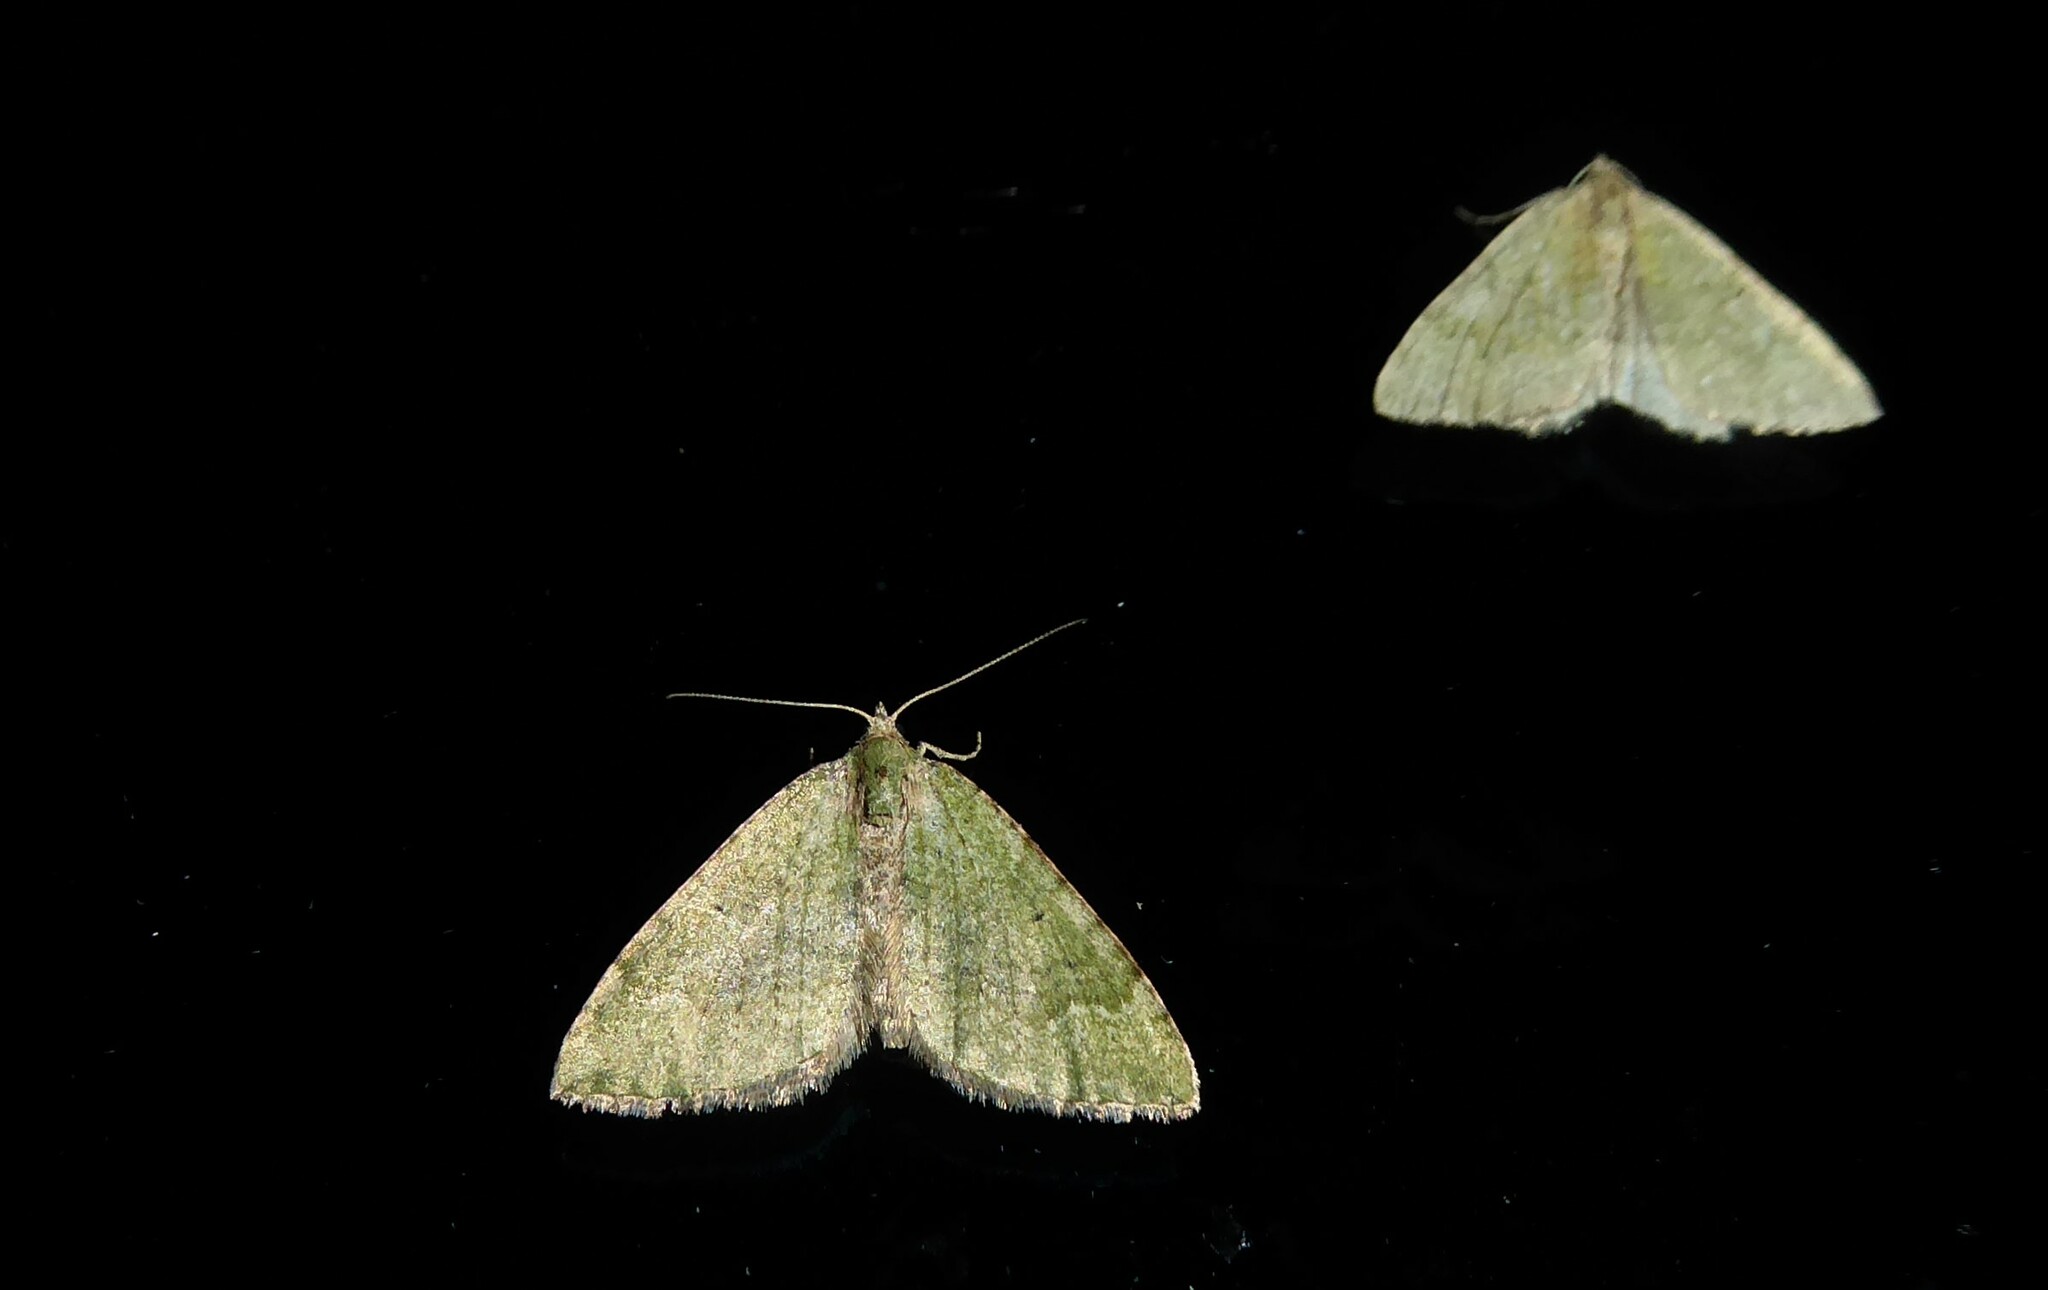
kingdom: Animalia
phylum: Arthropoda
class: Insecta
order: Lepidoptera
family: Geometridae
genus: Epyaxa
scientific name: Epyaxa rosearia
